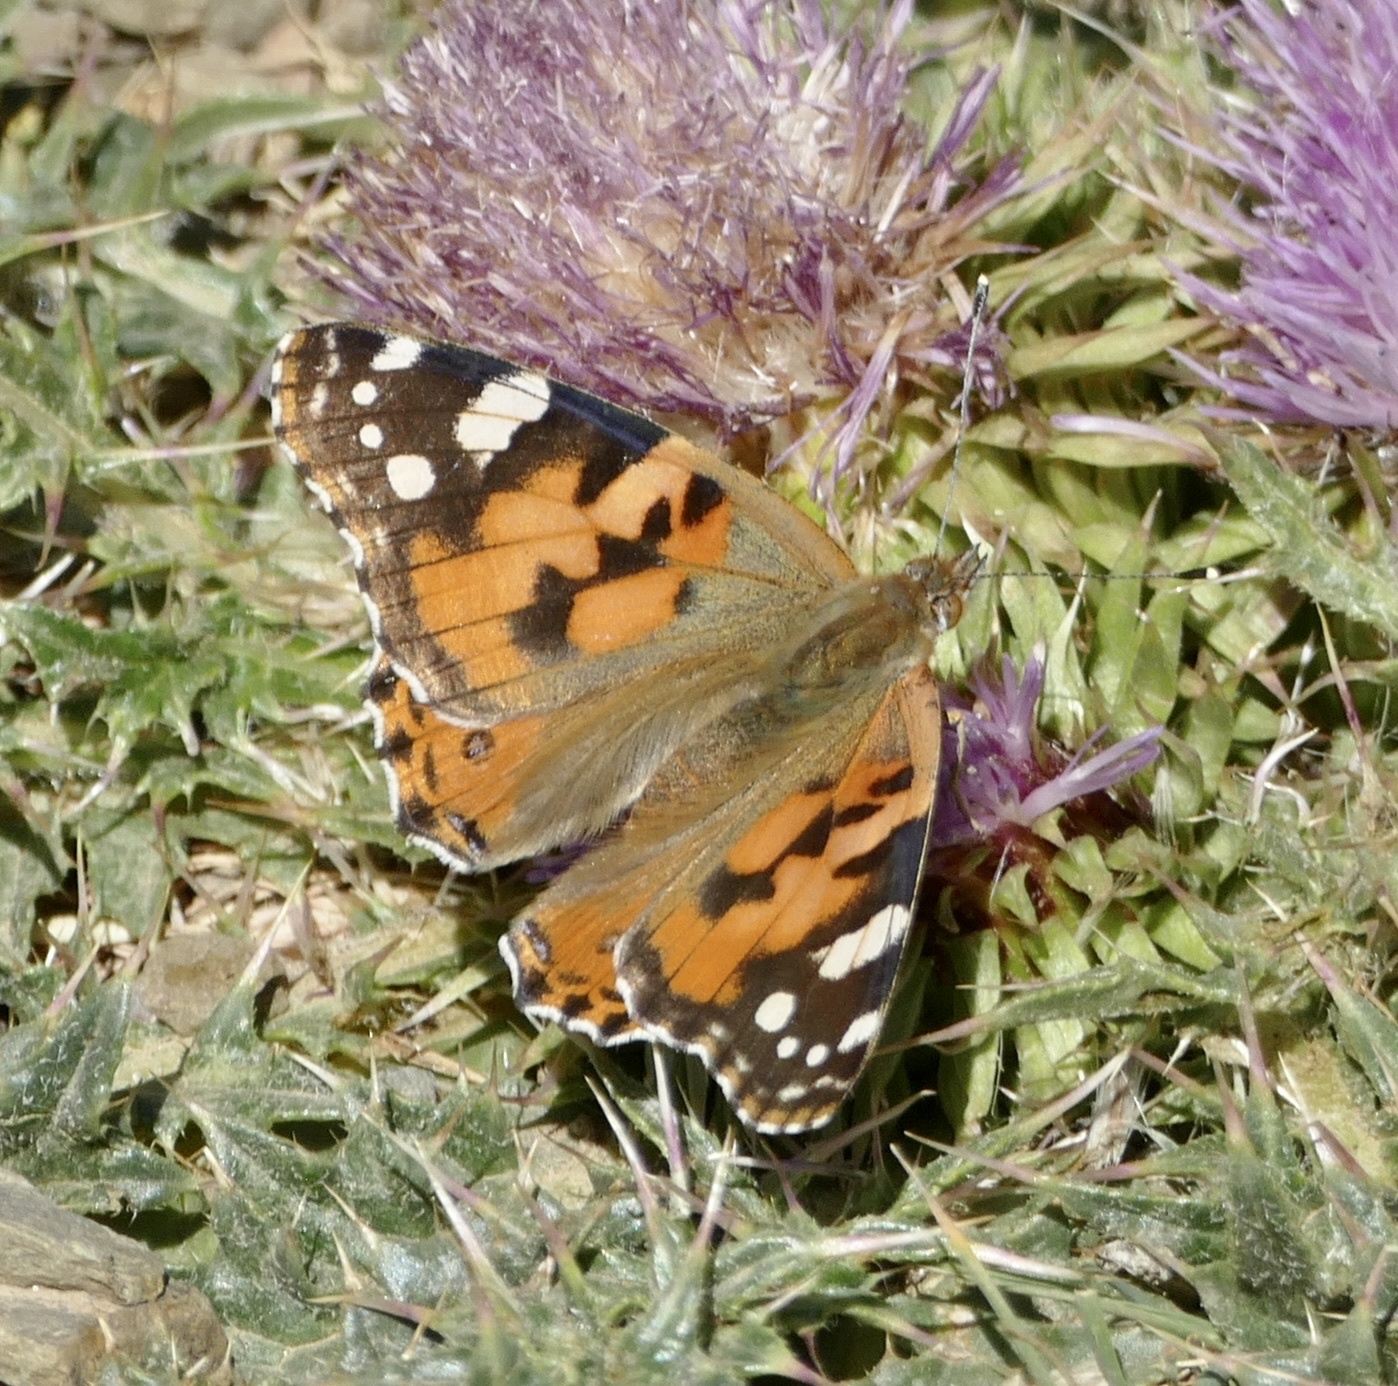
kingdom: Animalia
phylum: Arthropoda
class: Insecta
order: Lepidoptera
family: Nymphalidae
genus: Vanessa
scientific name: Vanessa cardui
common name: Painted lady
